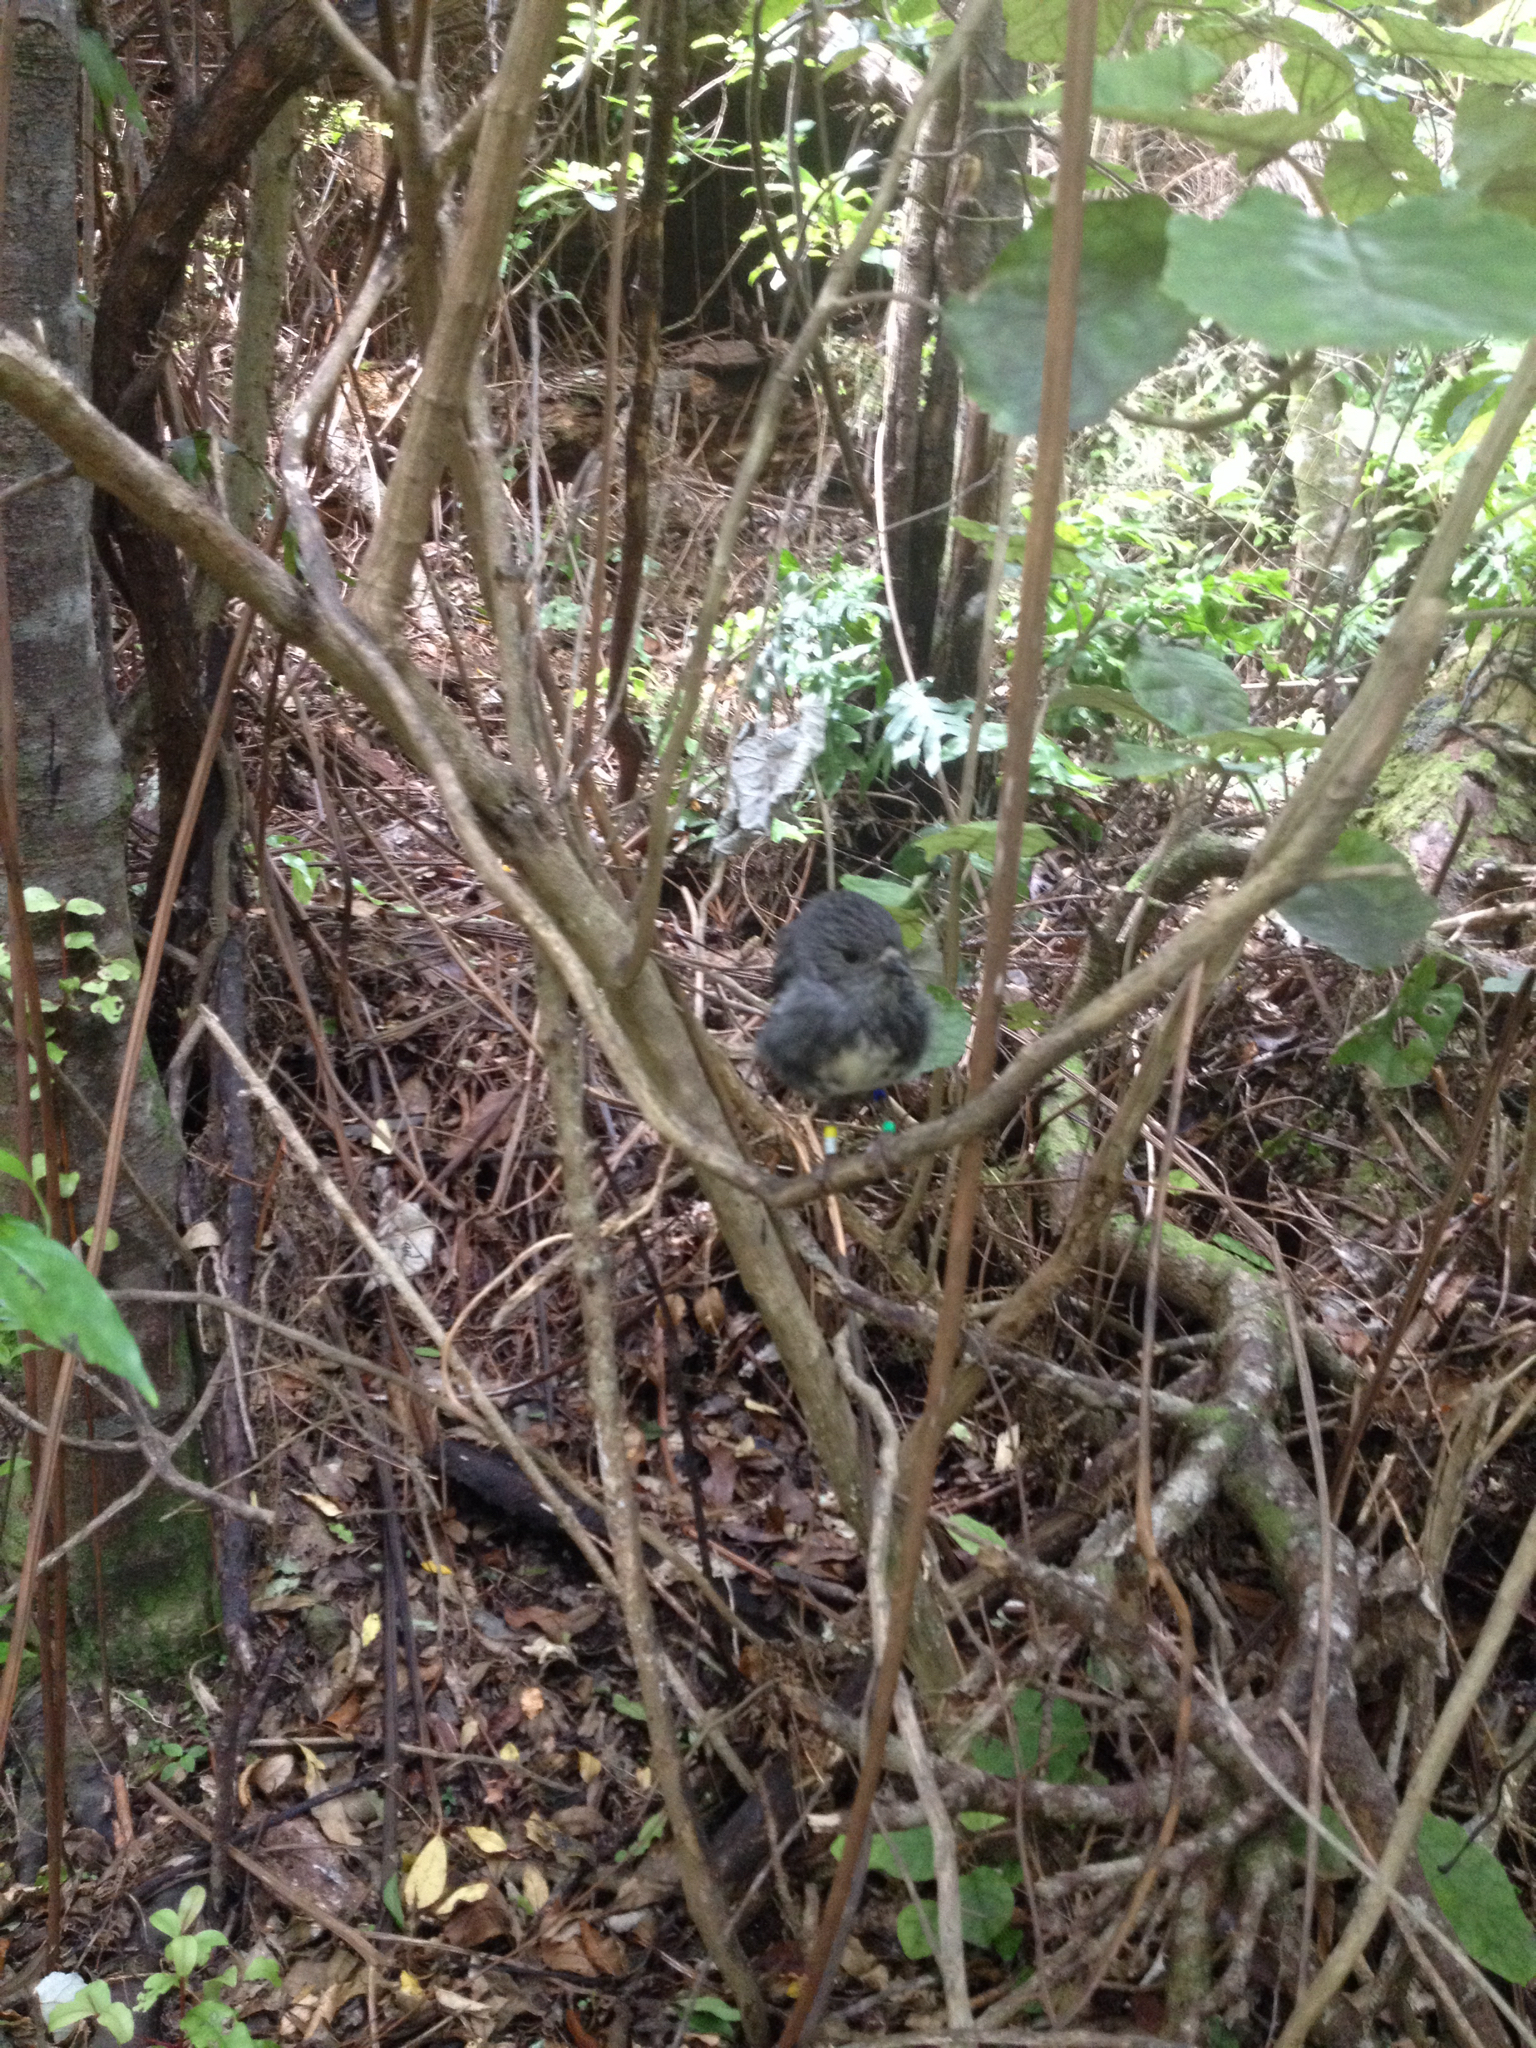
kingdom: Animalia
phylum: Chordata
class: Aves
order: Passeriformes
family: Petroicidae
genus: Petroica
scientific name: Petroica australis
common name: New zealand robin
